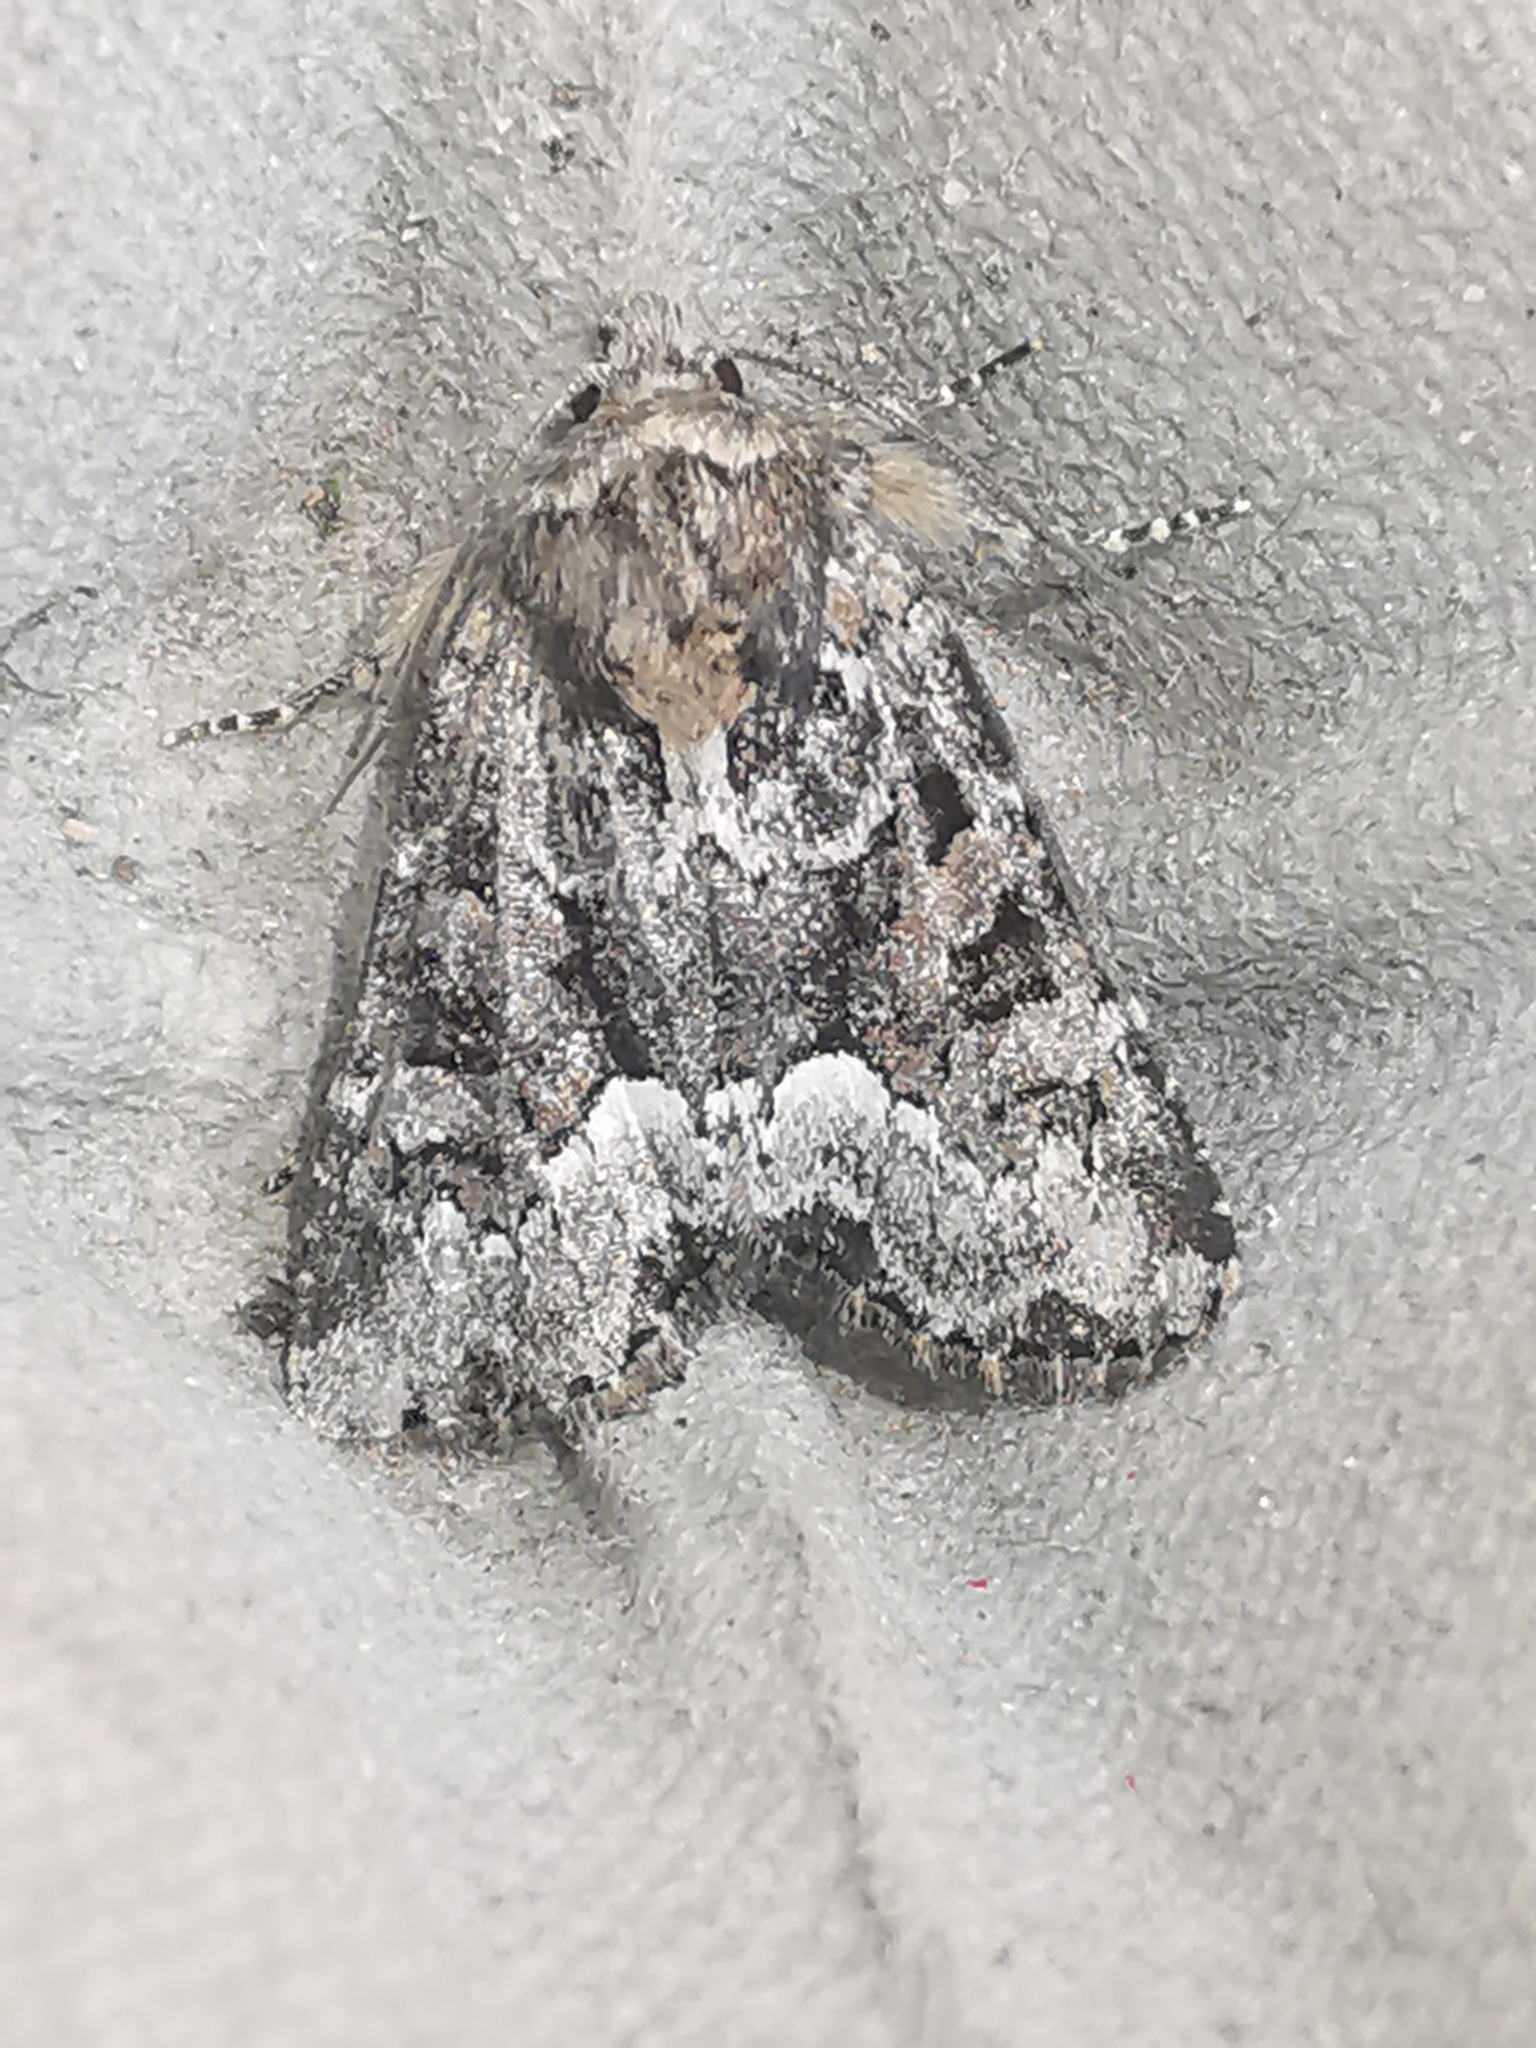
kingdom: Animalia
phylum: Arthropoda
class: Insecta
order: Lepidoptera
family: Noctuidae
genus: Oligia
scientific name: Oligia strigilis
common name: Marbled minor
